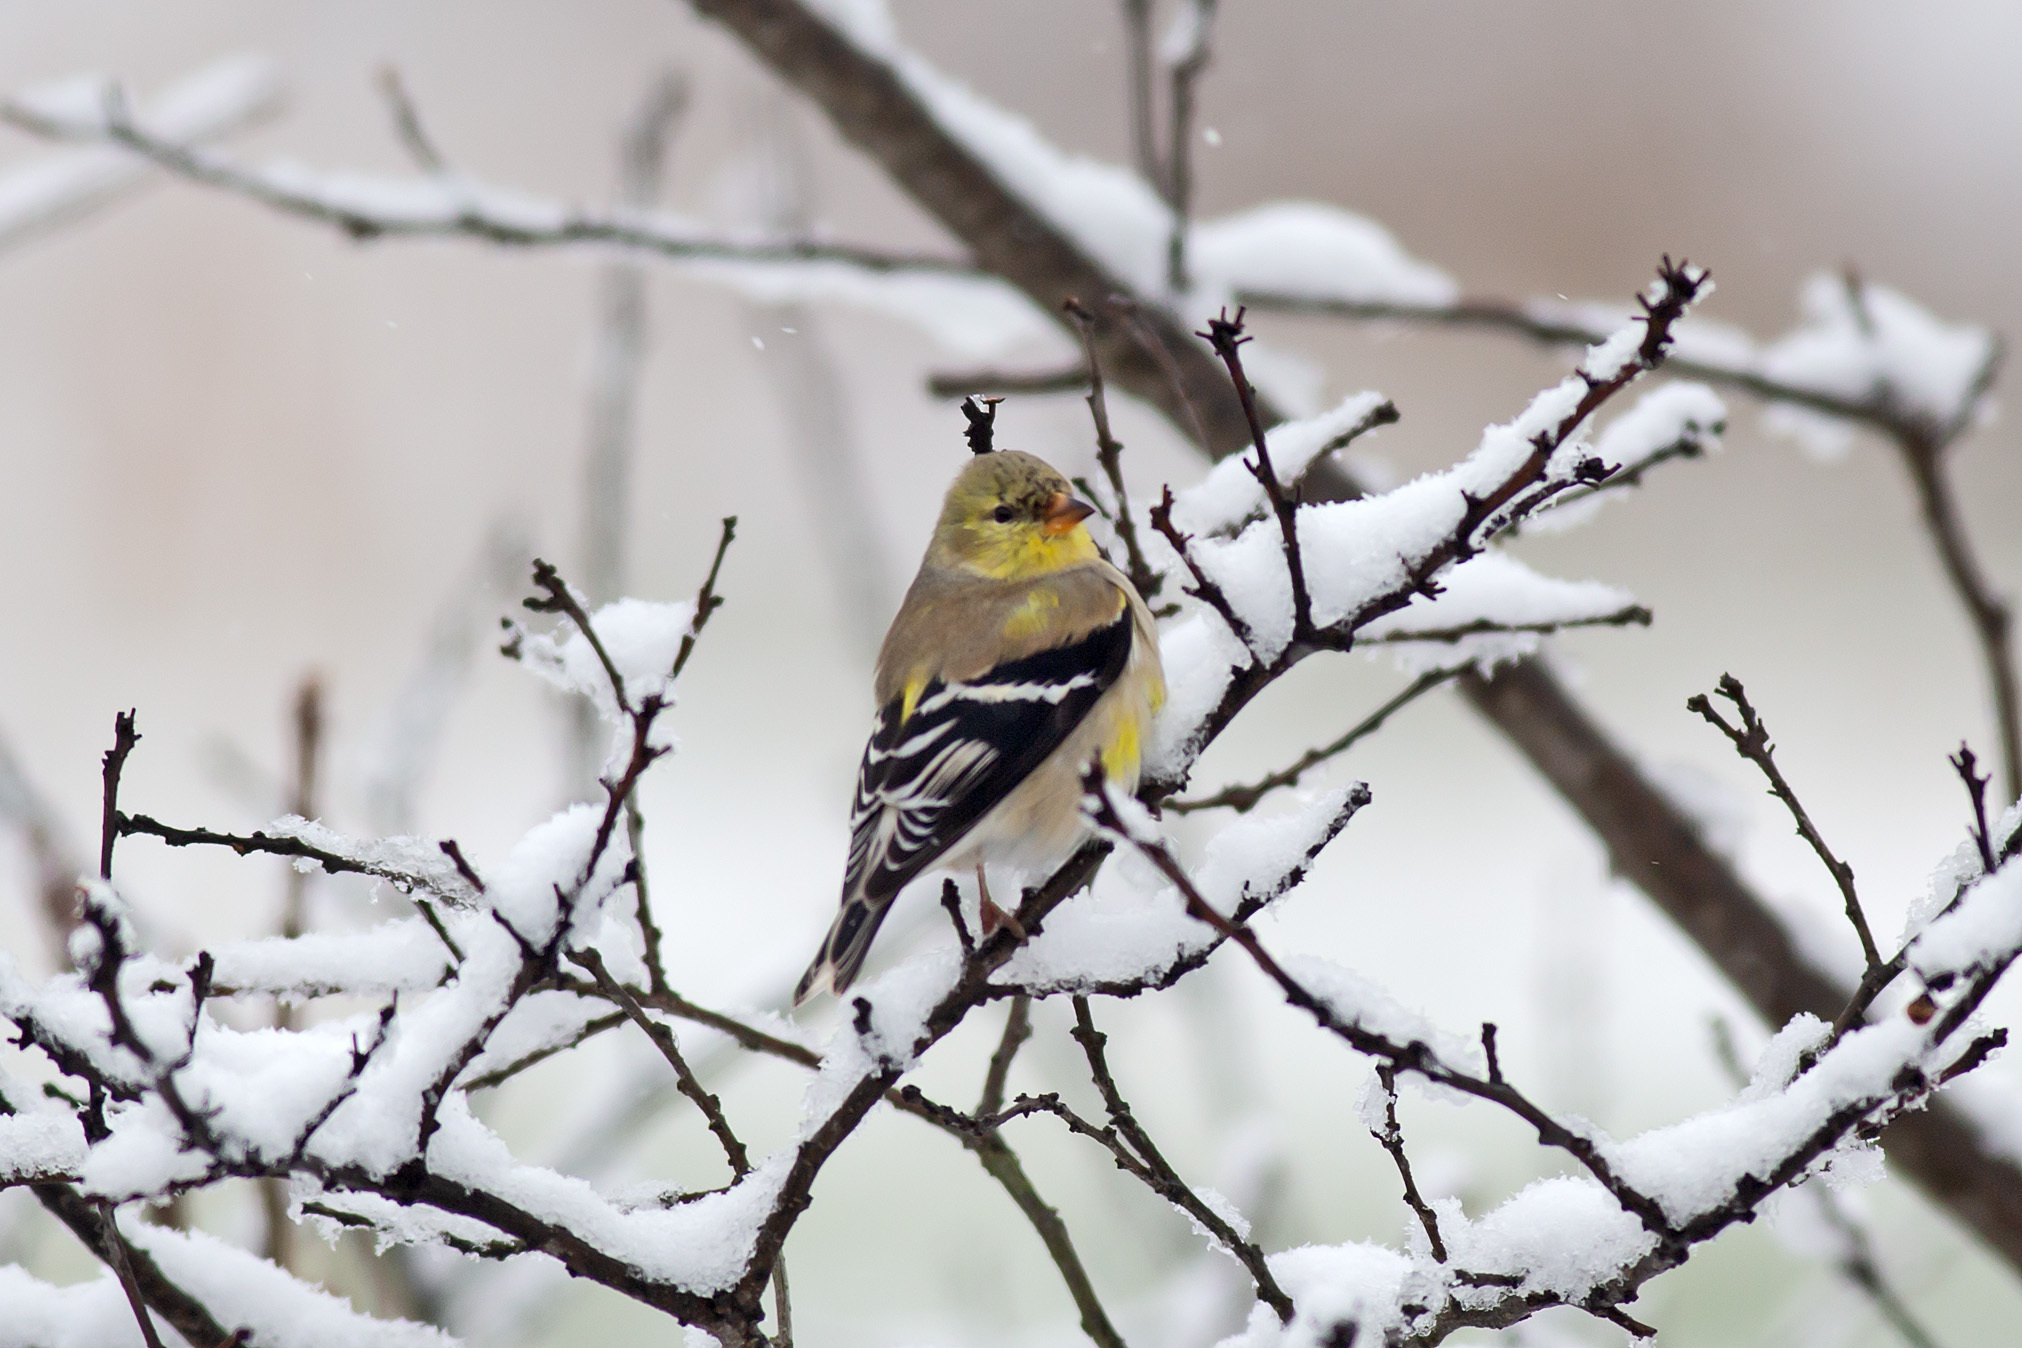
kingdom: Animalia
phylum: Chordata
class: Aves
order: Passeriformes
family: Fringillidae
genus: Spinus
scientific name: Spinus tristis
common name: American goldfinch
